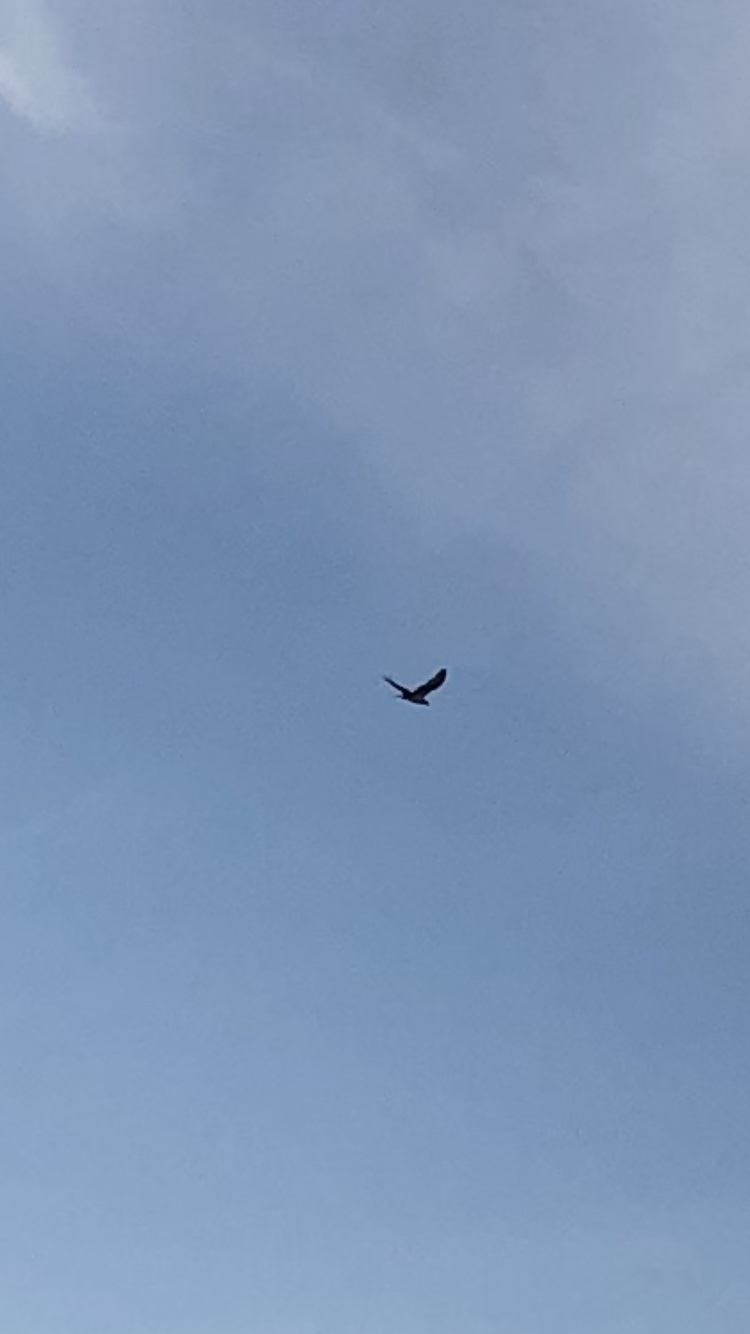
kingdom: Animalia
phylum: Chordata
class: Aves
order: Accipitriformes
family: Pandionidae
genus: Pandion
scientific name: Pandion haliaetus
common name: Osprey
